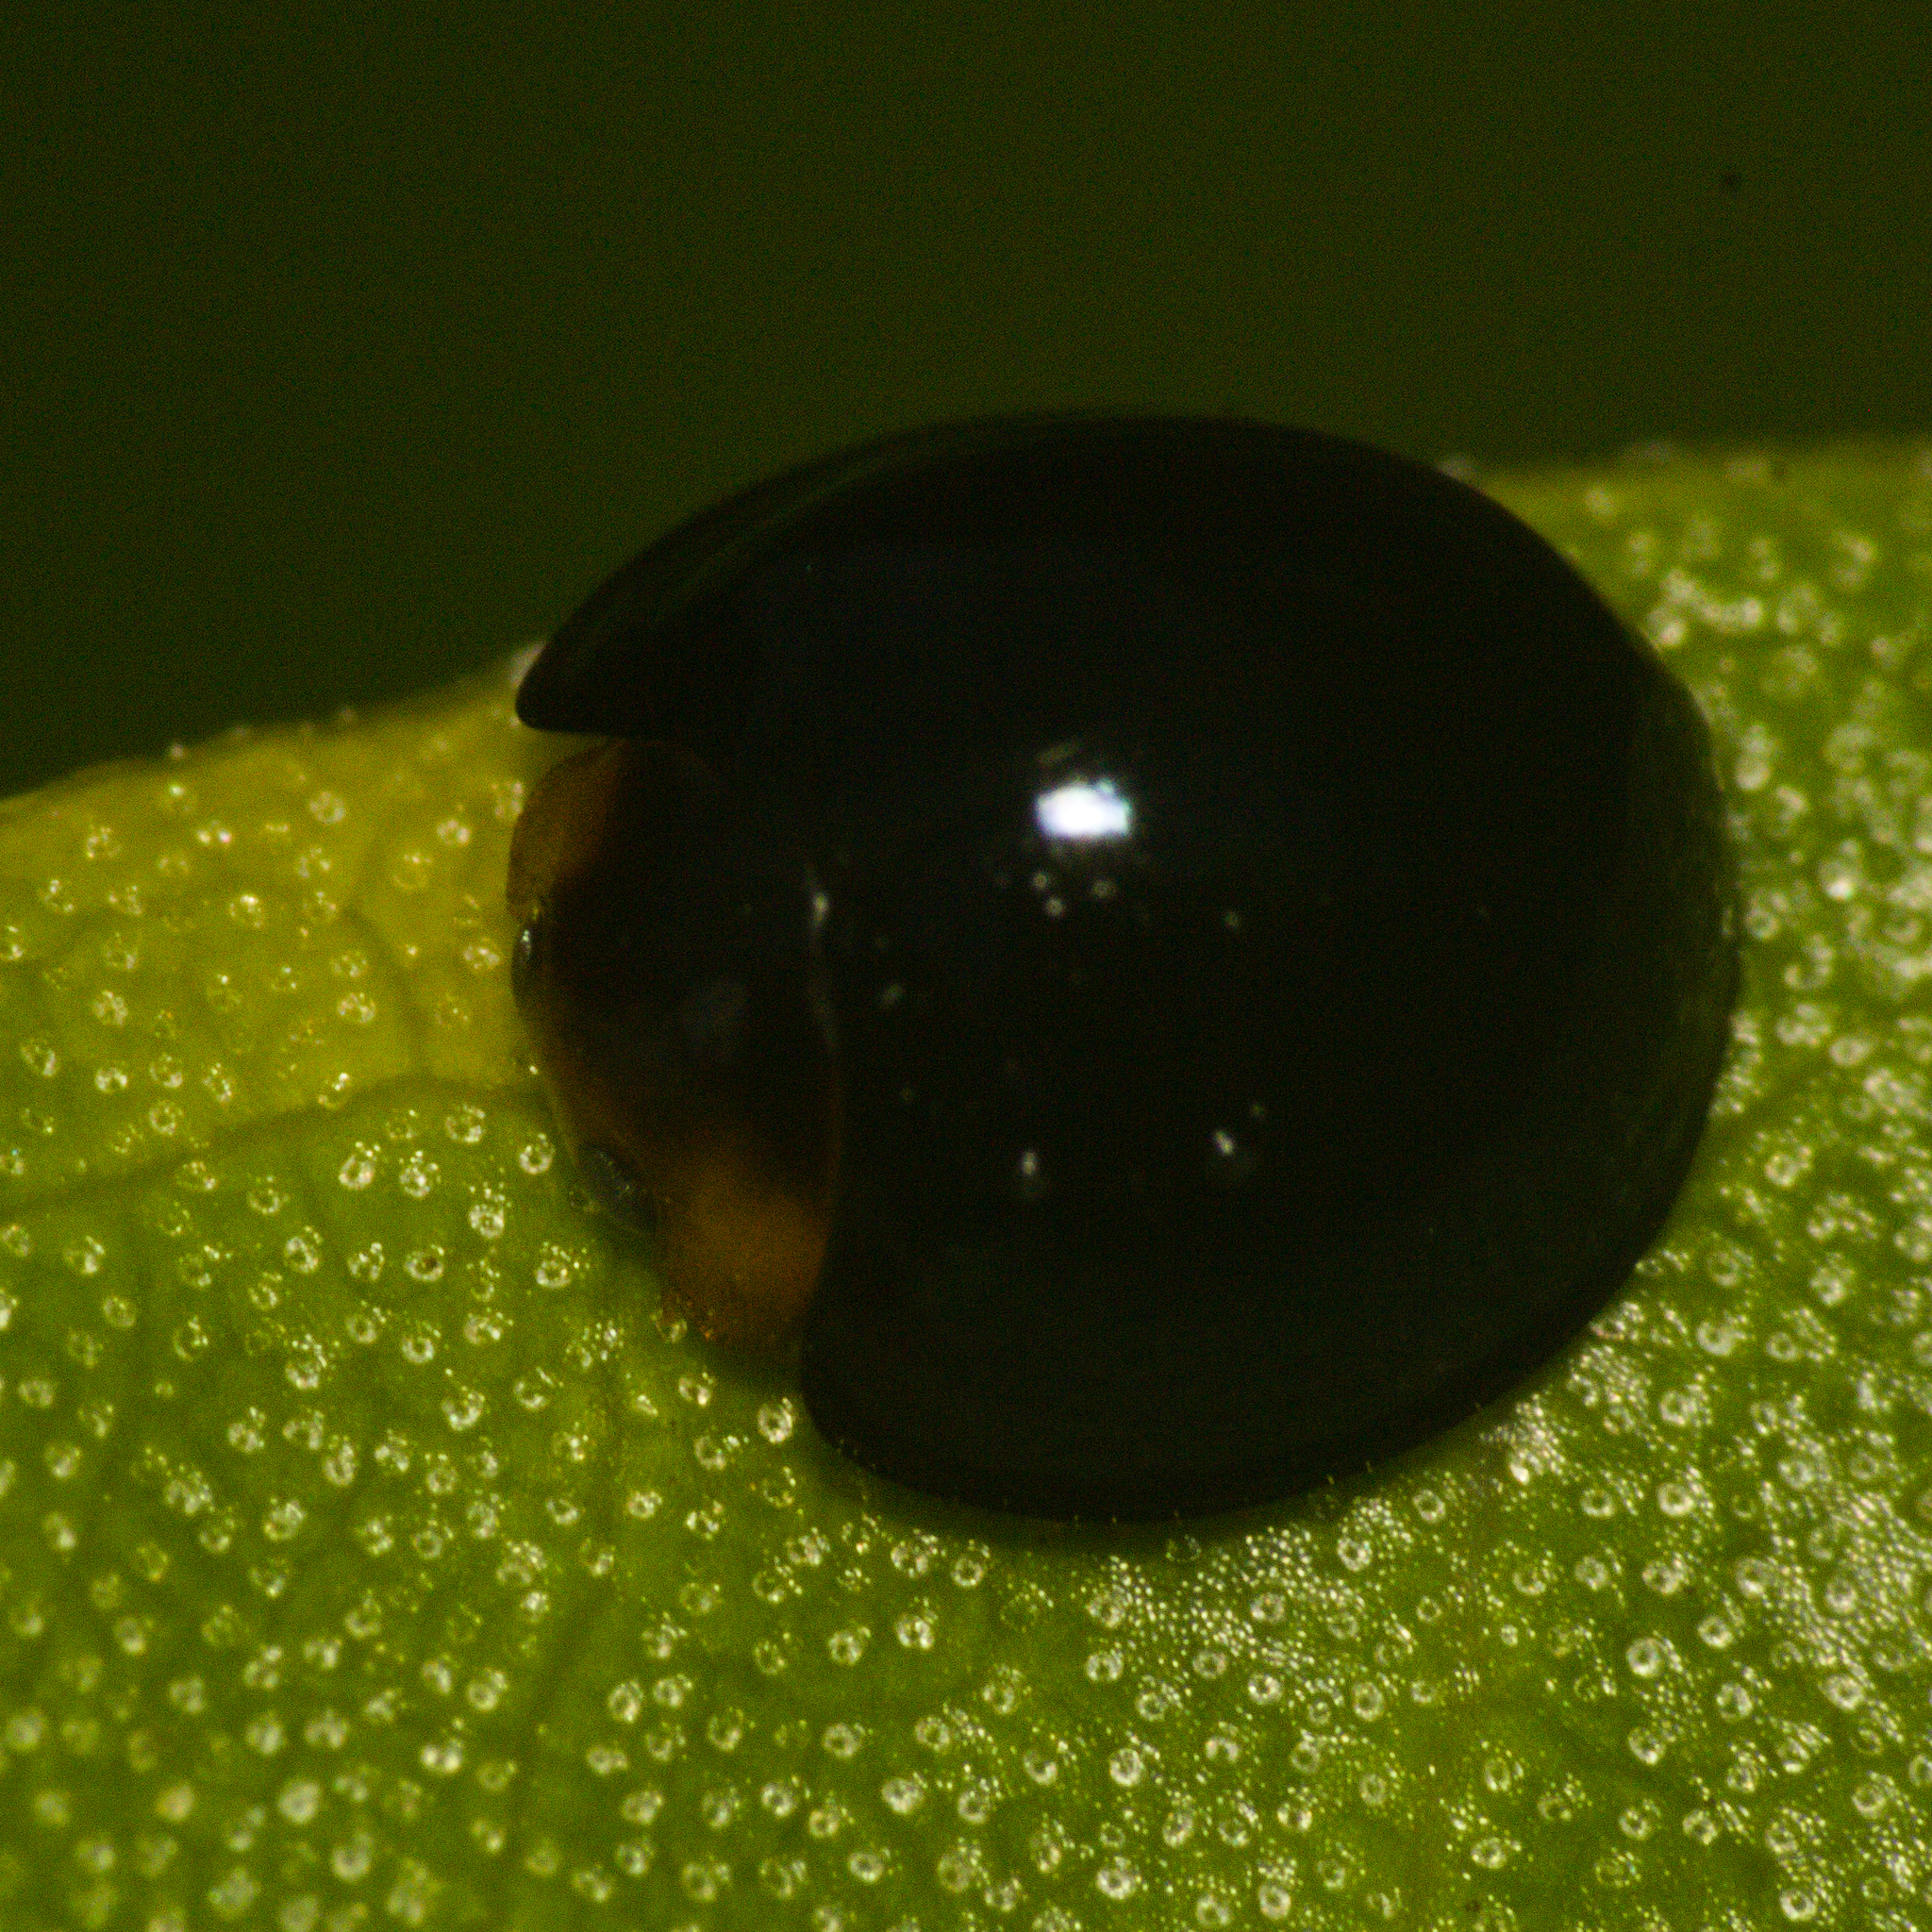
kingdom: Animalia
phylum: Arthropoda
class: Insecta
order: Coleoptera
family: Coccinellidae
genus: Chilocorus
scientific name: Chilocorus nigritus
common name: Ladybird beetle
